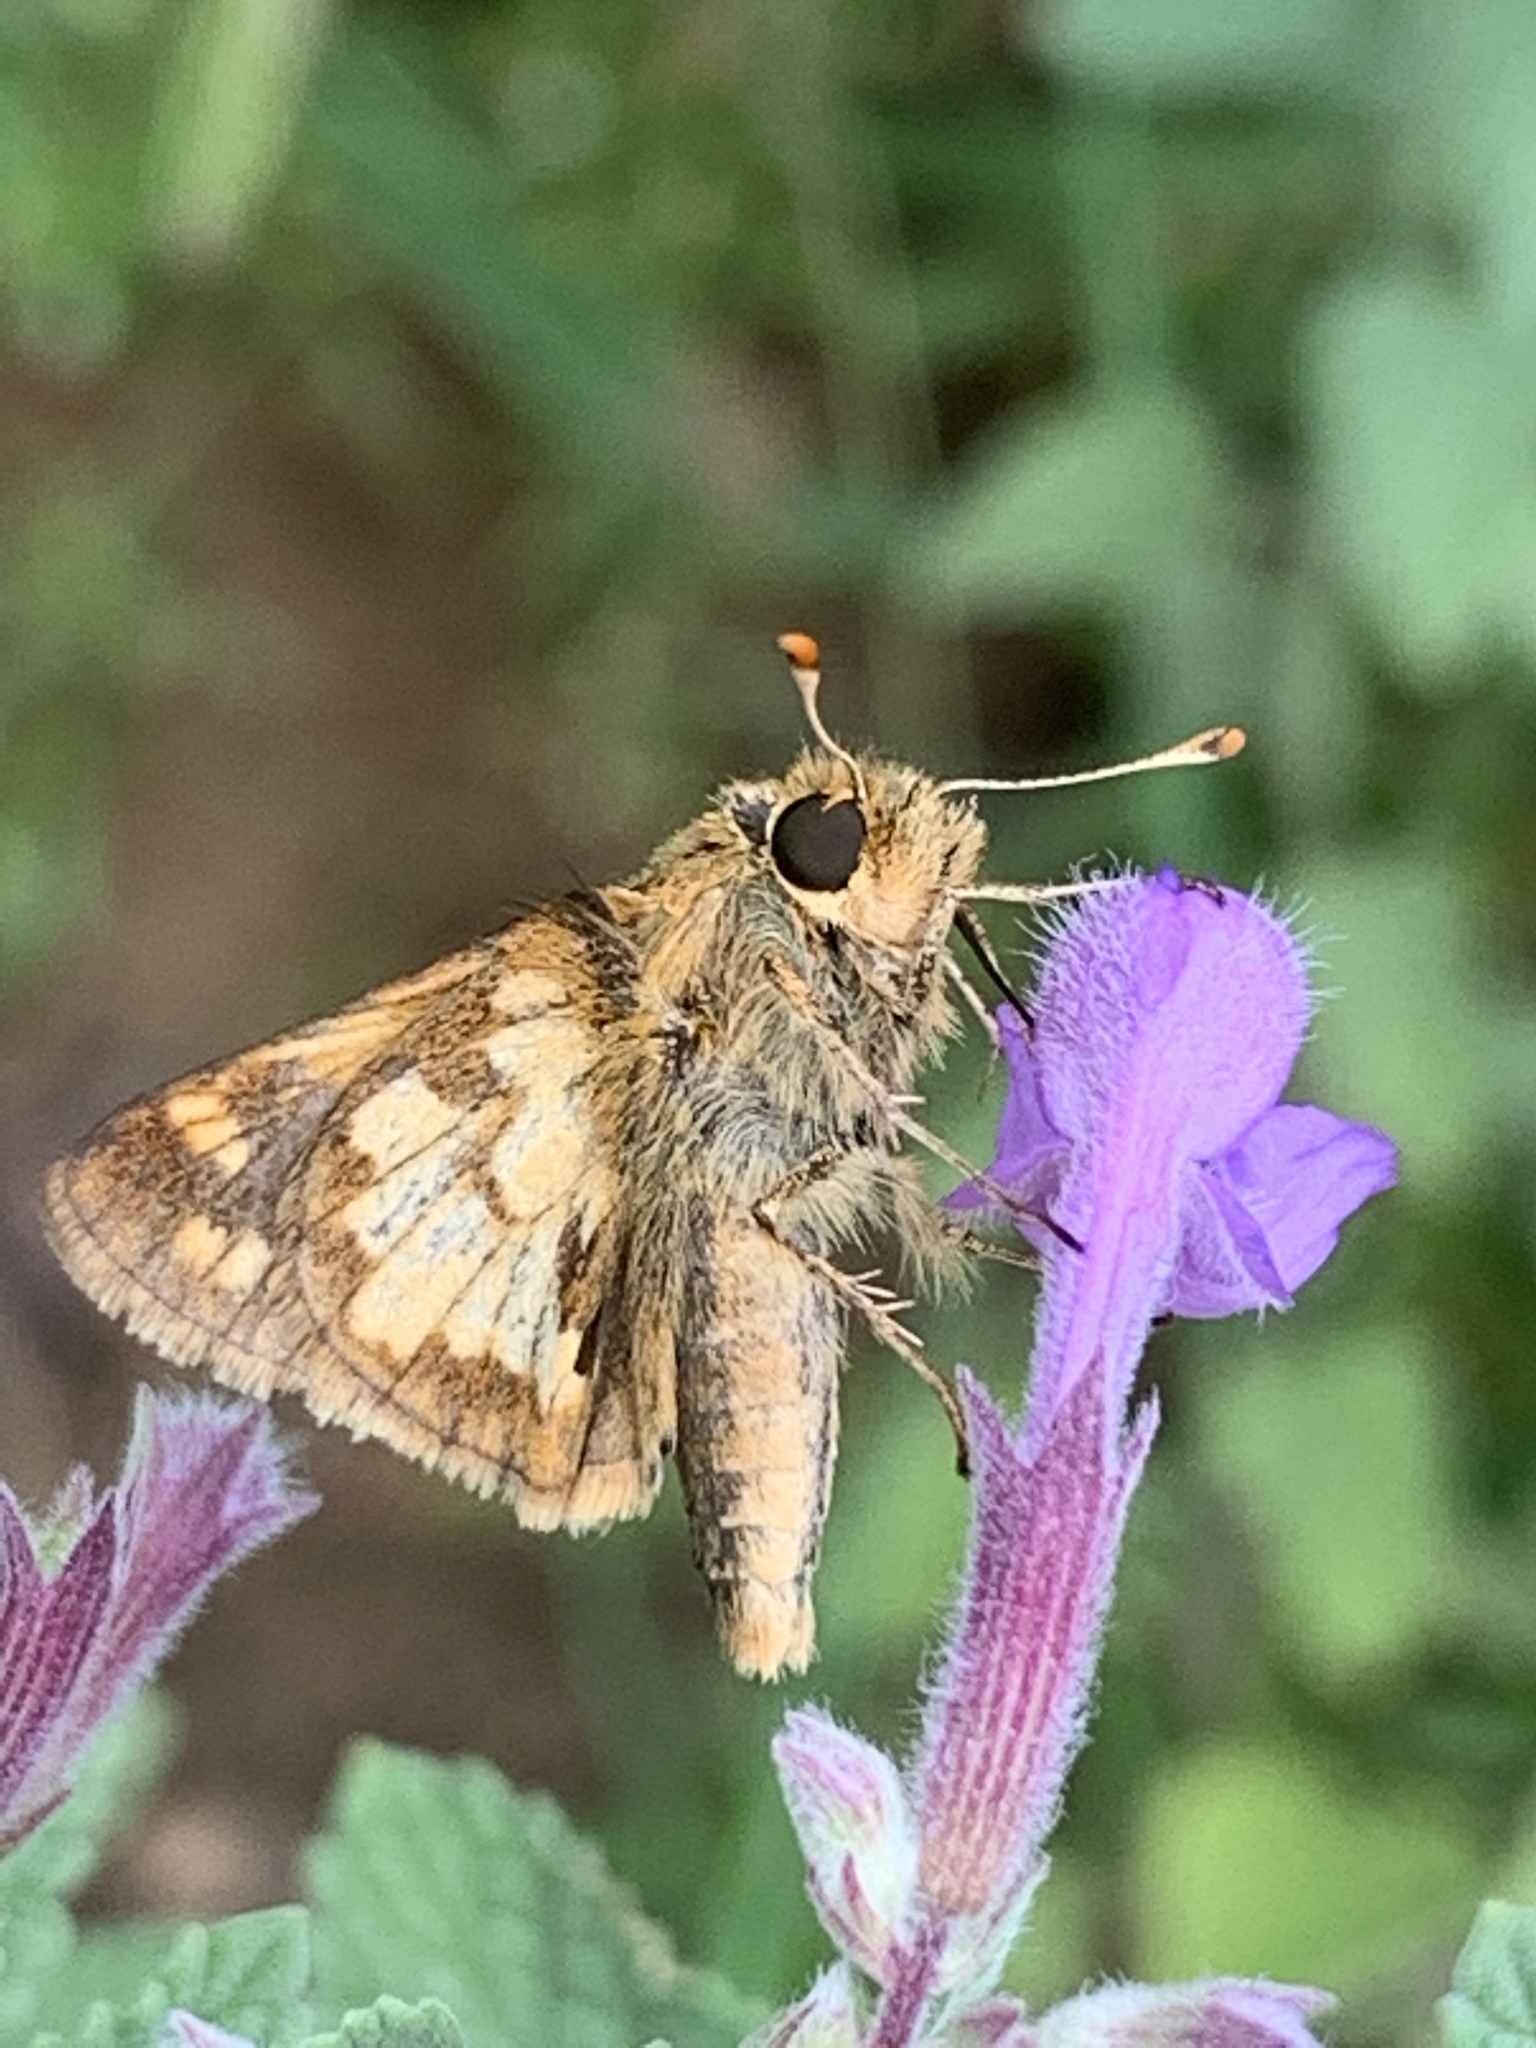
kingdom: Animalia
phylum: Arthropoda
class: Insecta
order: Lepidoptera
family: Hesperiidae
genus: Polites
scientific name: Polites coras
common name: Peck's skipper
